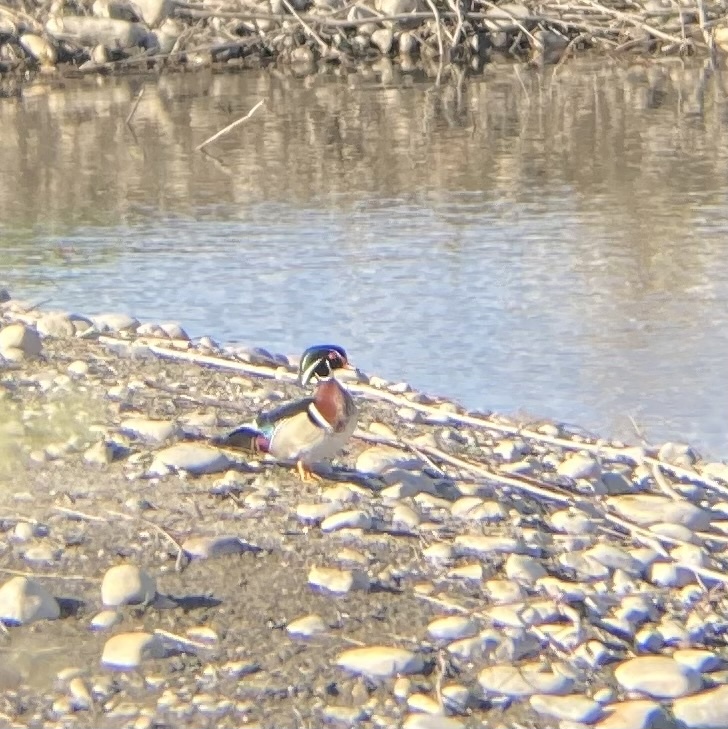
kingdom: Animalia
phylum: Chordata
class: Aves
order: Anseriformes
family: Anatidae
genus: Aix
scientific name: Aix sponsa
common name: Wood duck
